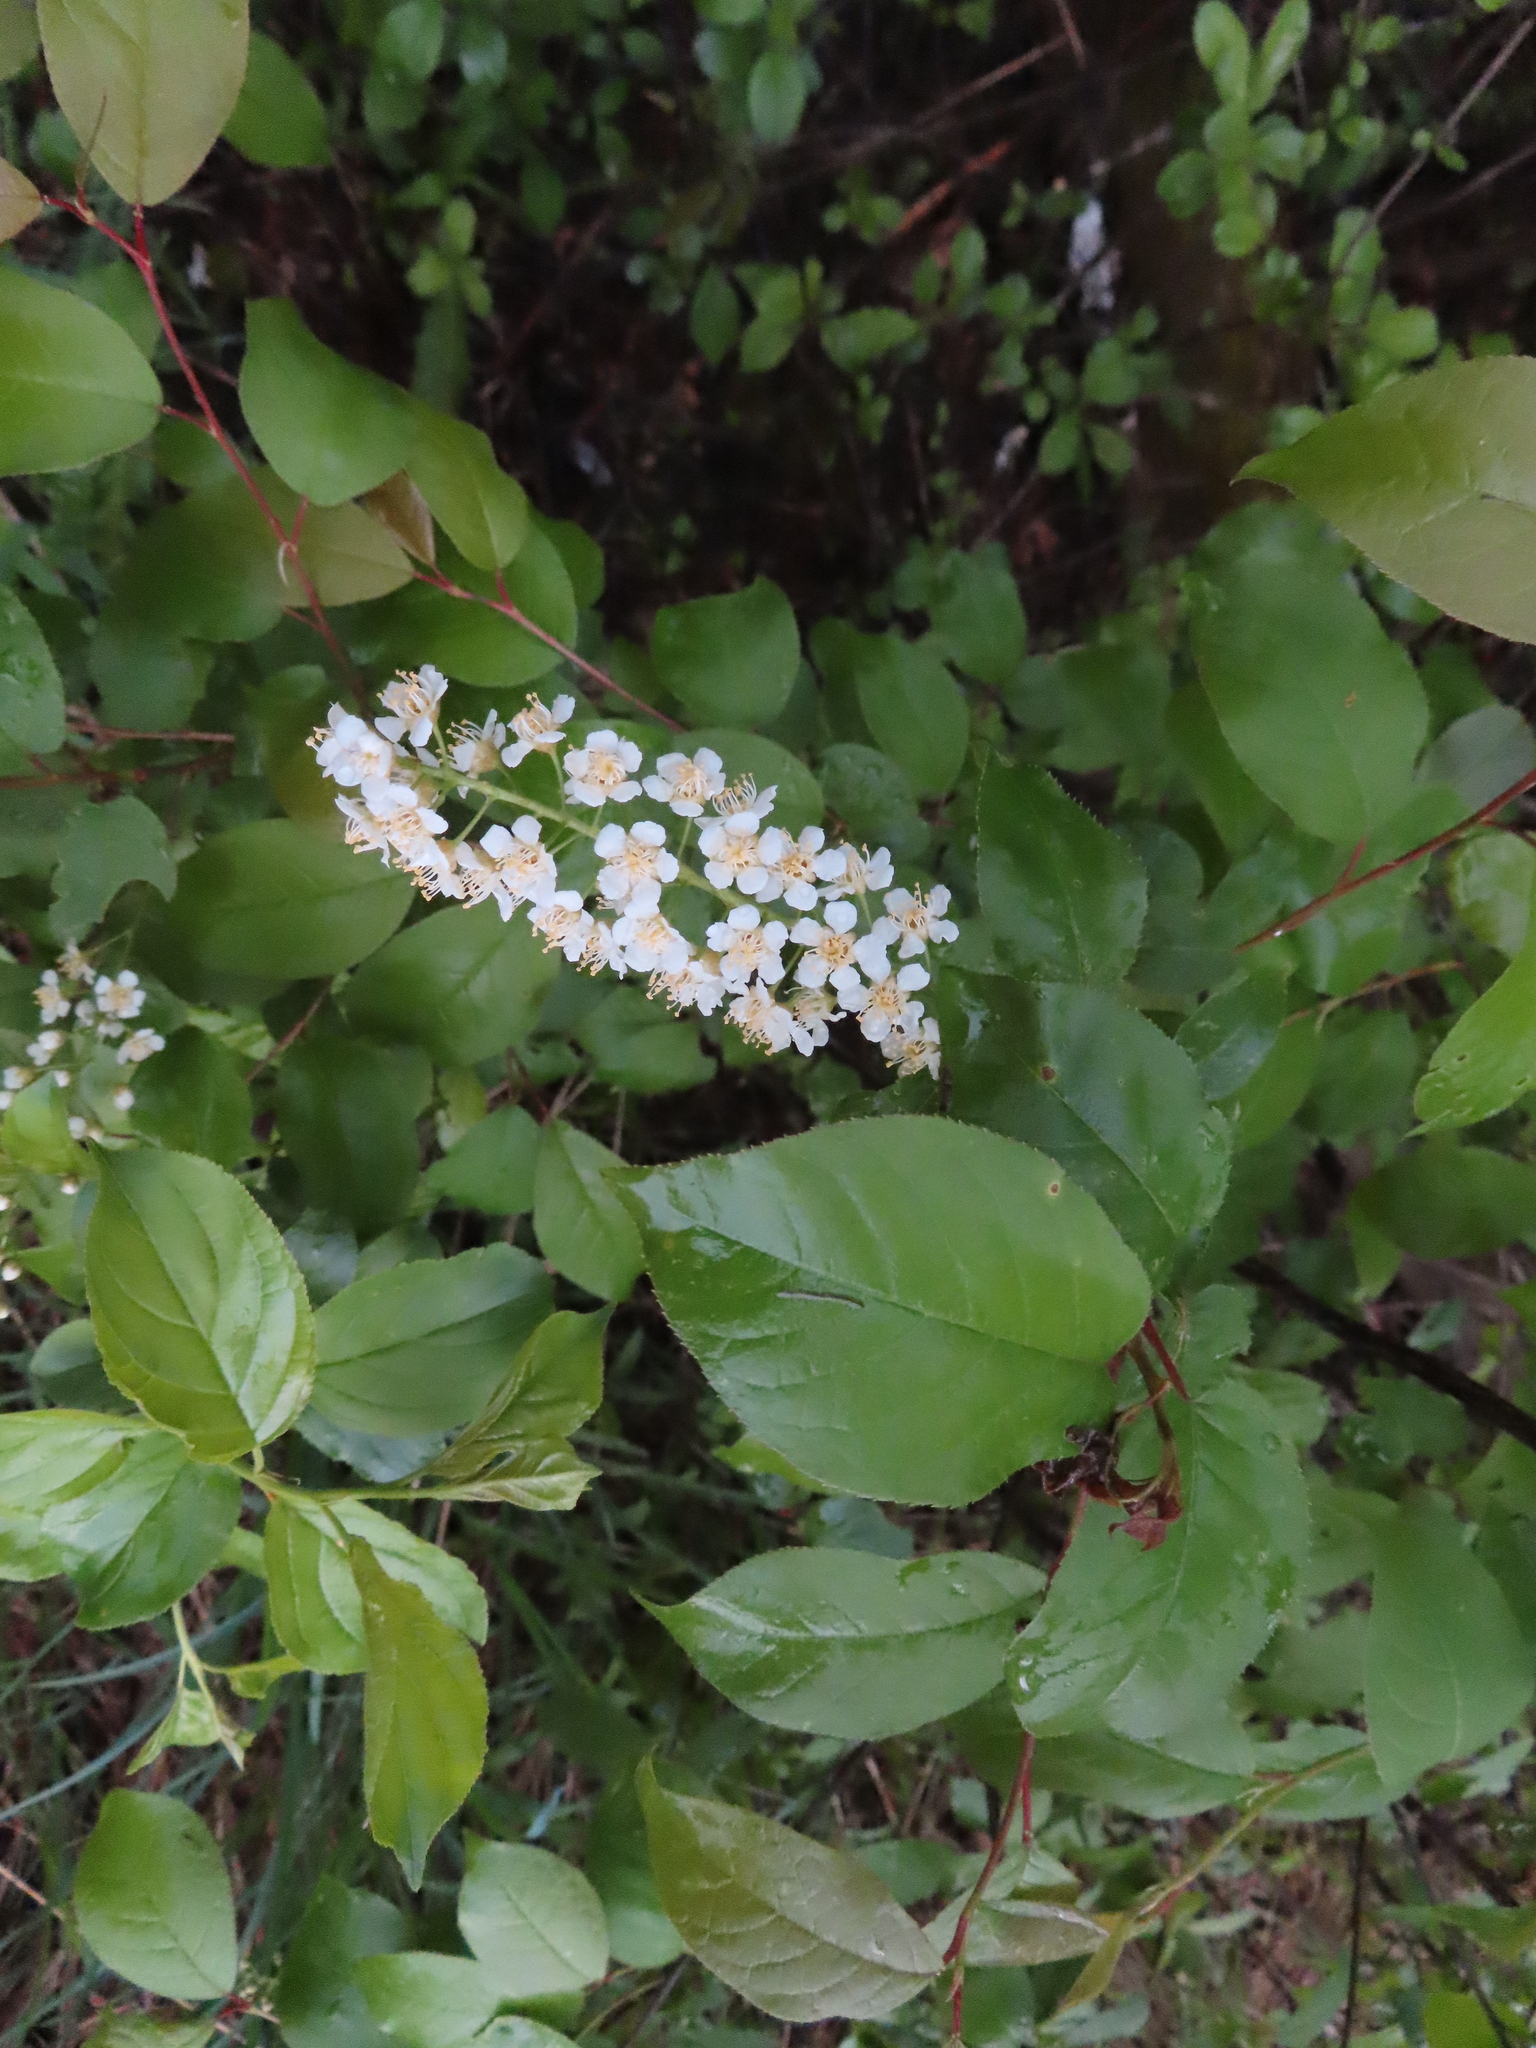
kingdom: Plantae
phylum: Tracheophyta
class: Magnoliopsida
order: Rosales
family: Rosaceae
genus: Prunus
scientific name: Prunus virginiana
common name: Chokecherry
